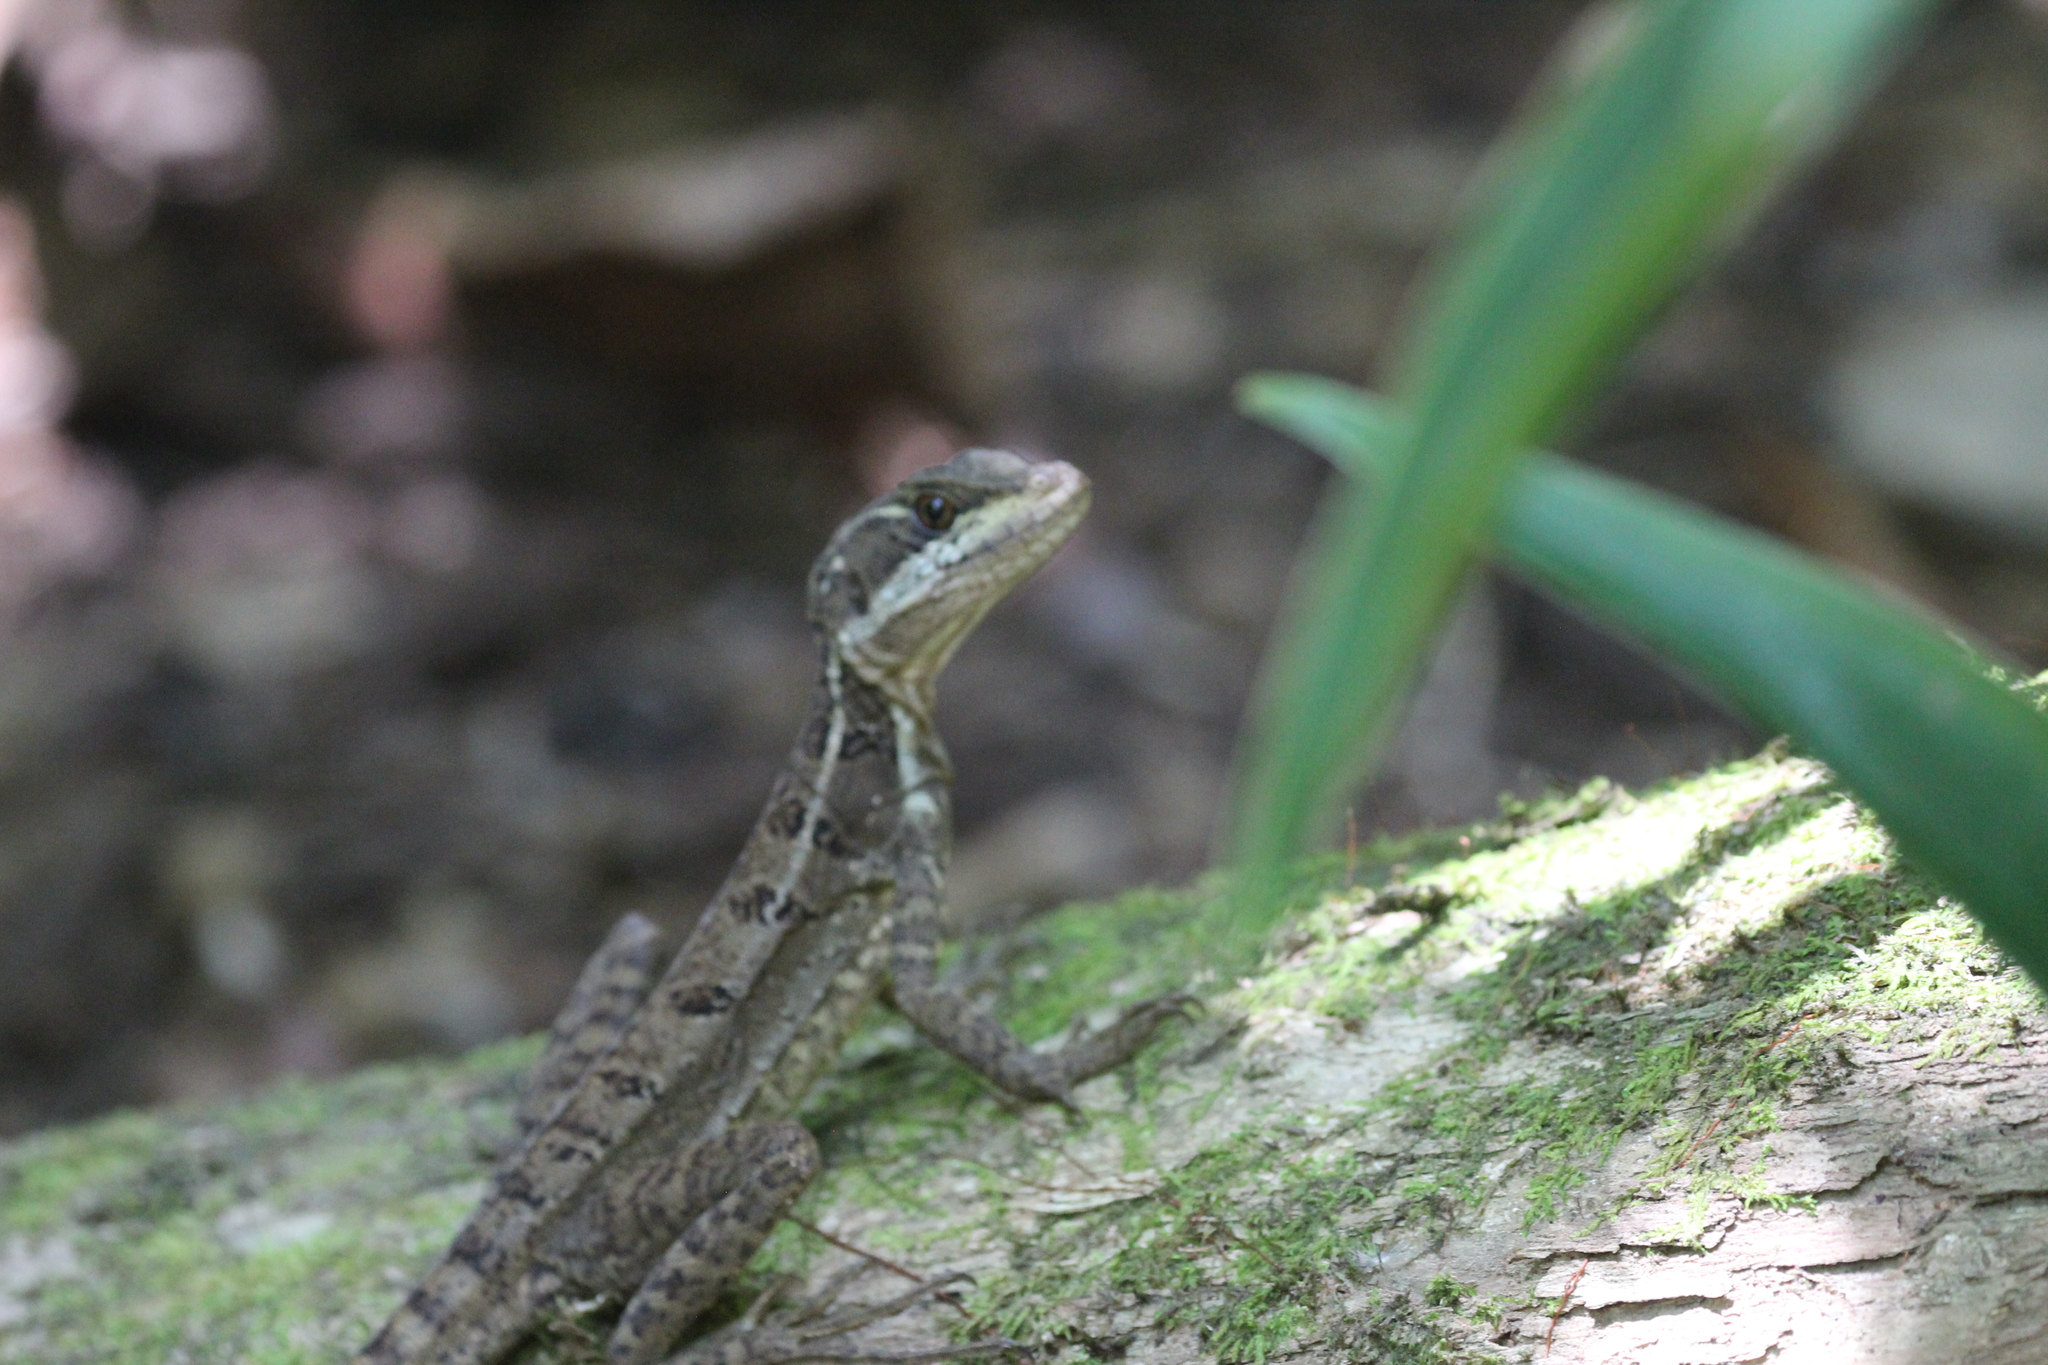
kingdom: Animalia
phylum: Chordata
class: Squamata
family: Corytophanidae
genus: Basiliscus
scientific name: Basiliscus basiliscus
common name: Common basilisk
